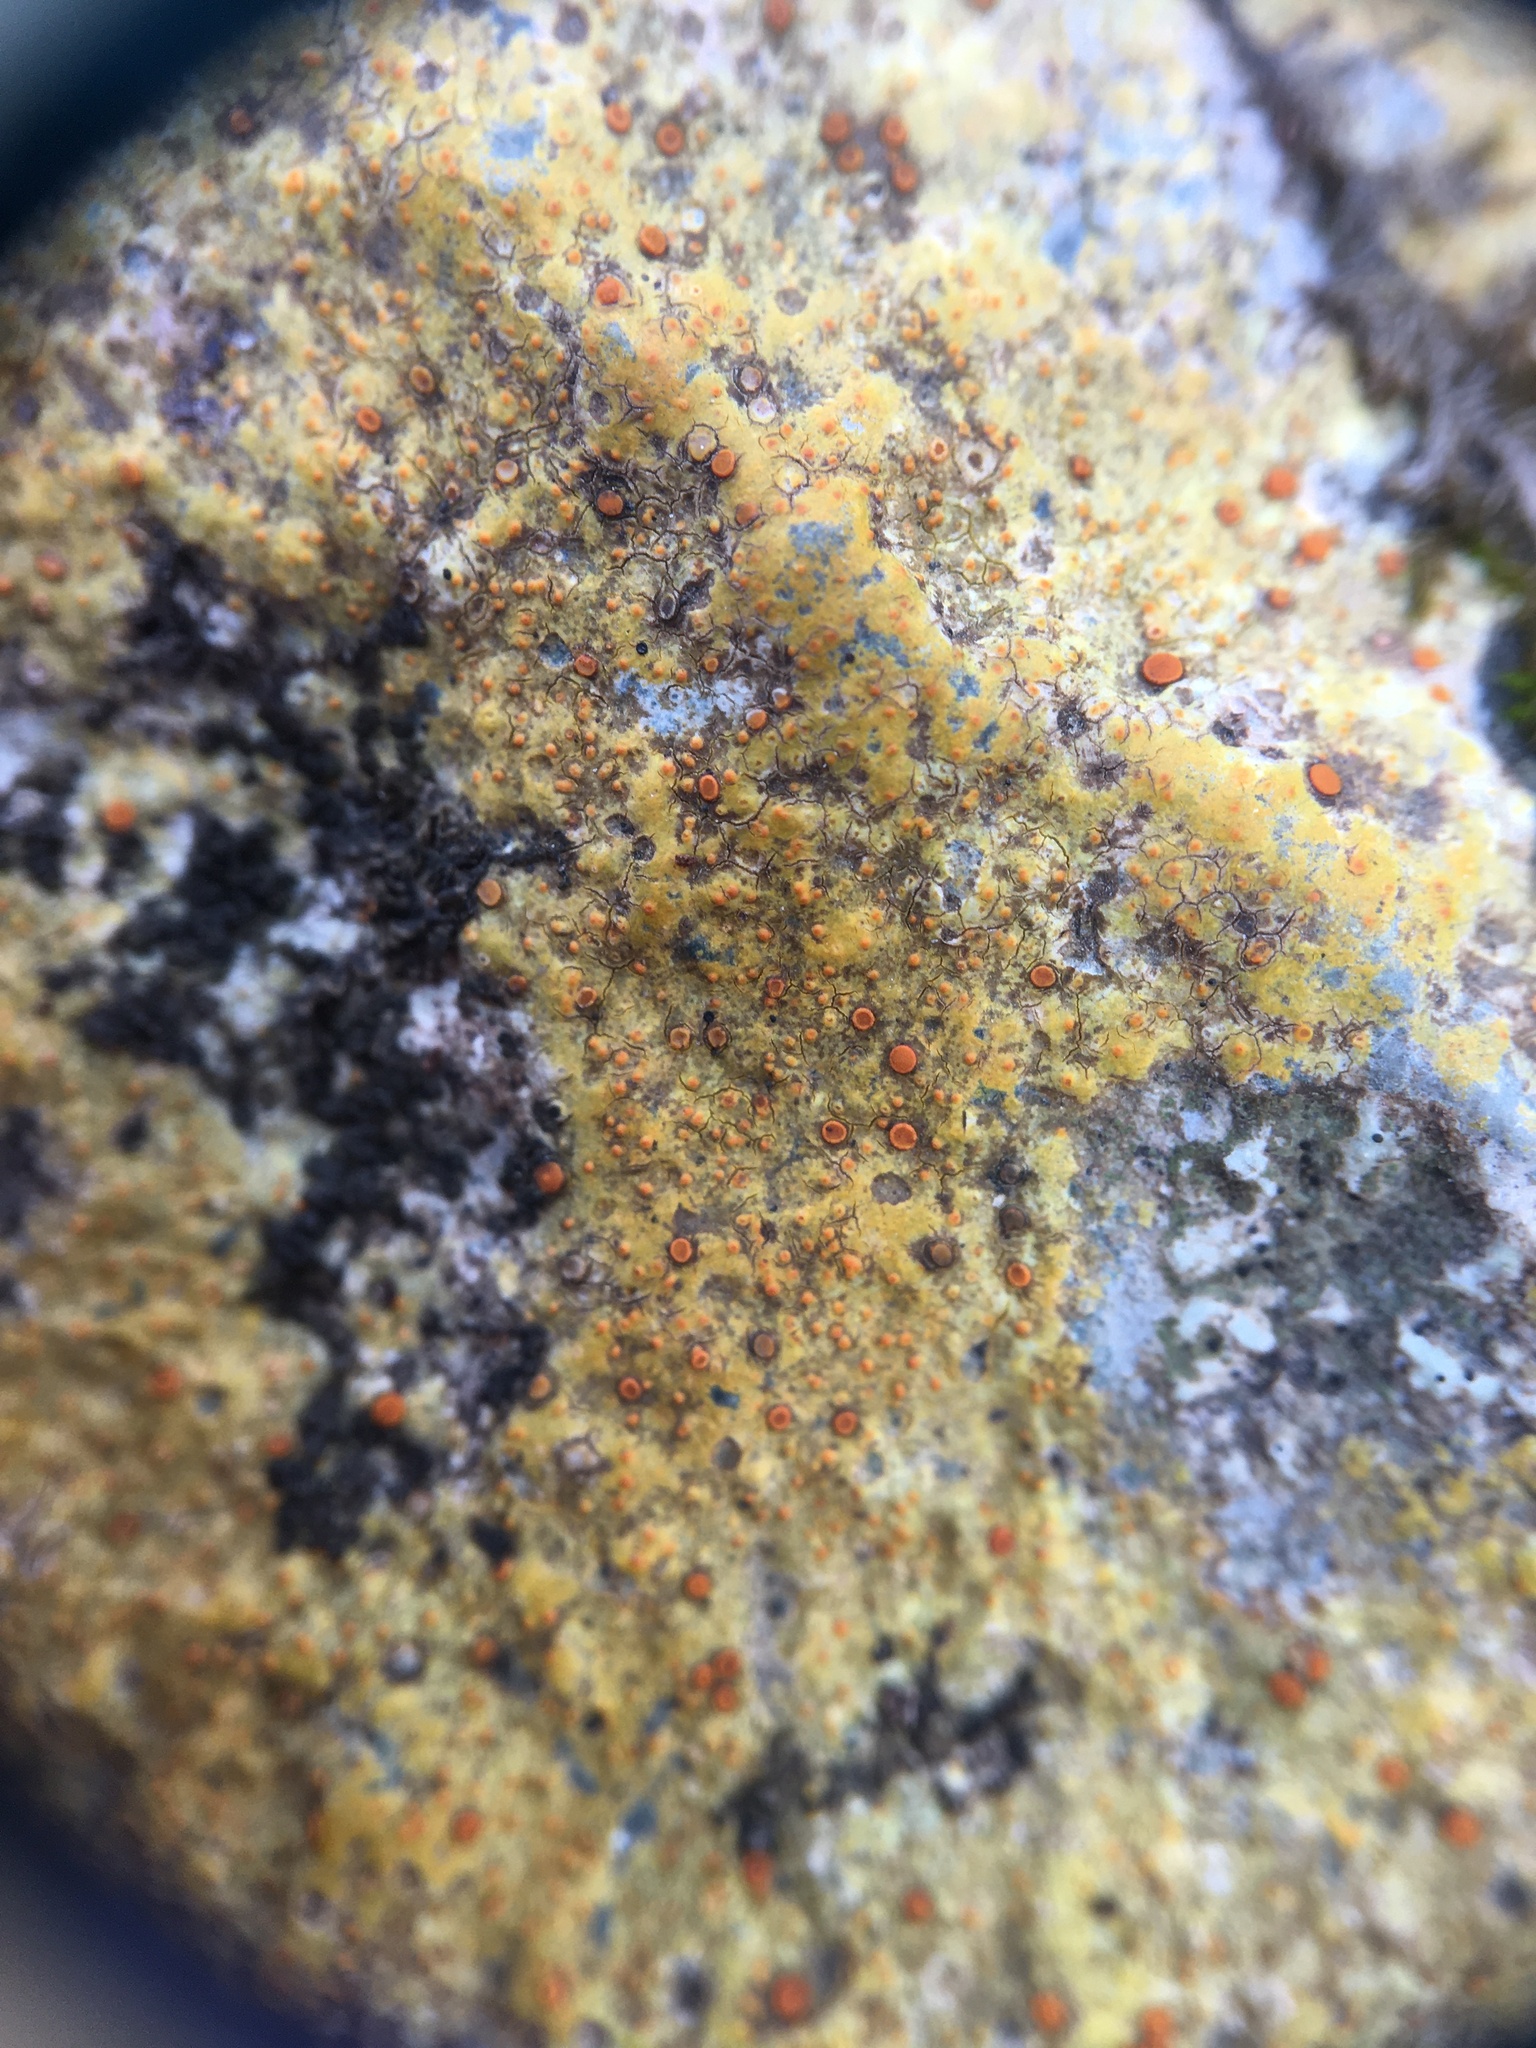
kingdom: Fungi
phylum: Ascomycota
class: Lecanoromycetes
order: Teloschistales
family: Teloschistaceae
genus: Gyalolechia
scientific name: Gyalolechia flavovirescens
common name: Sulphur firedot
